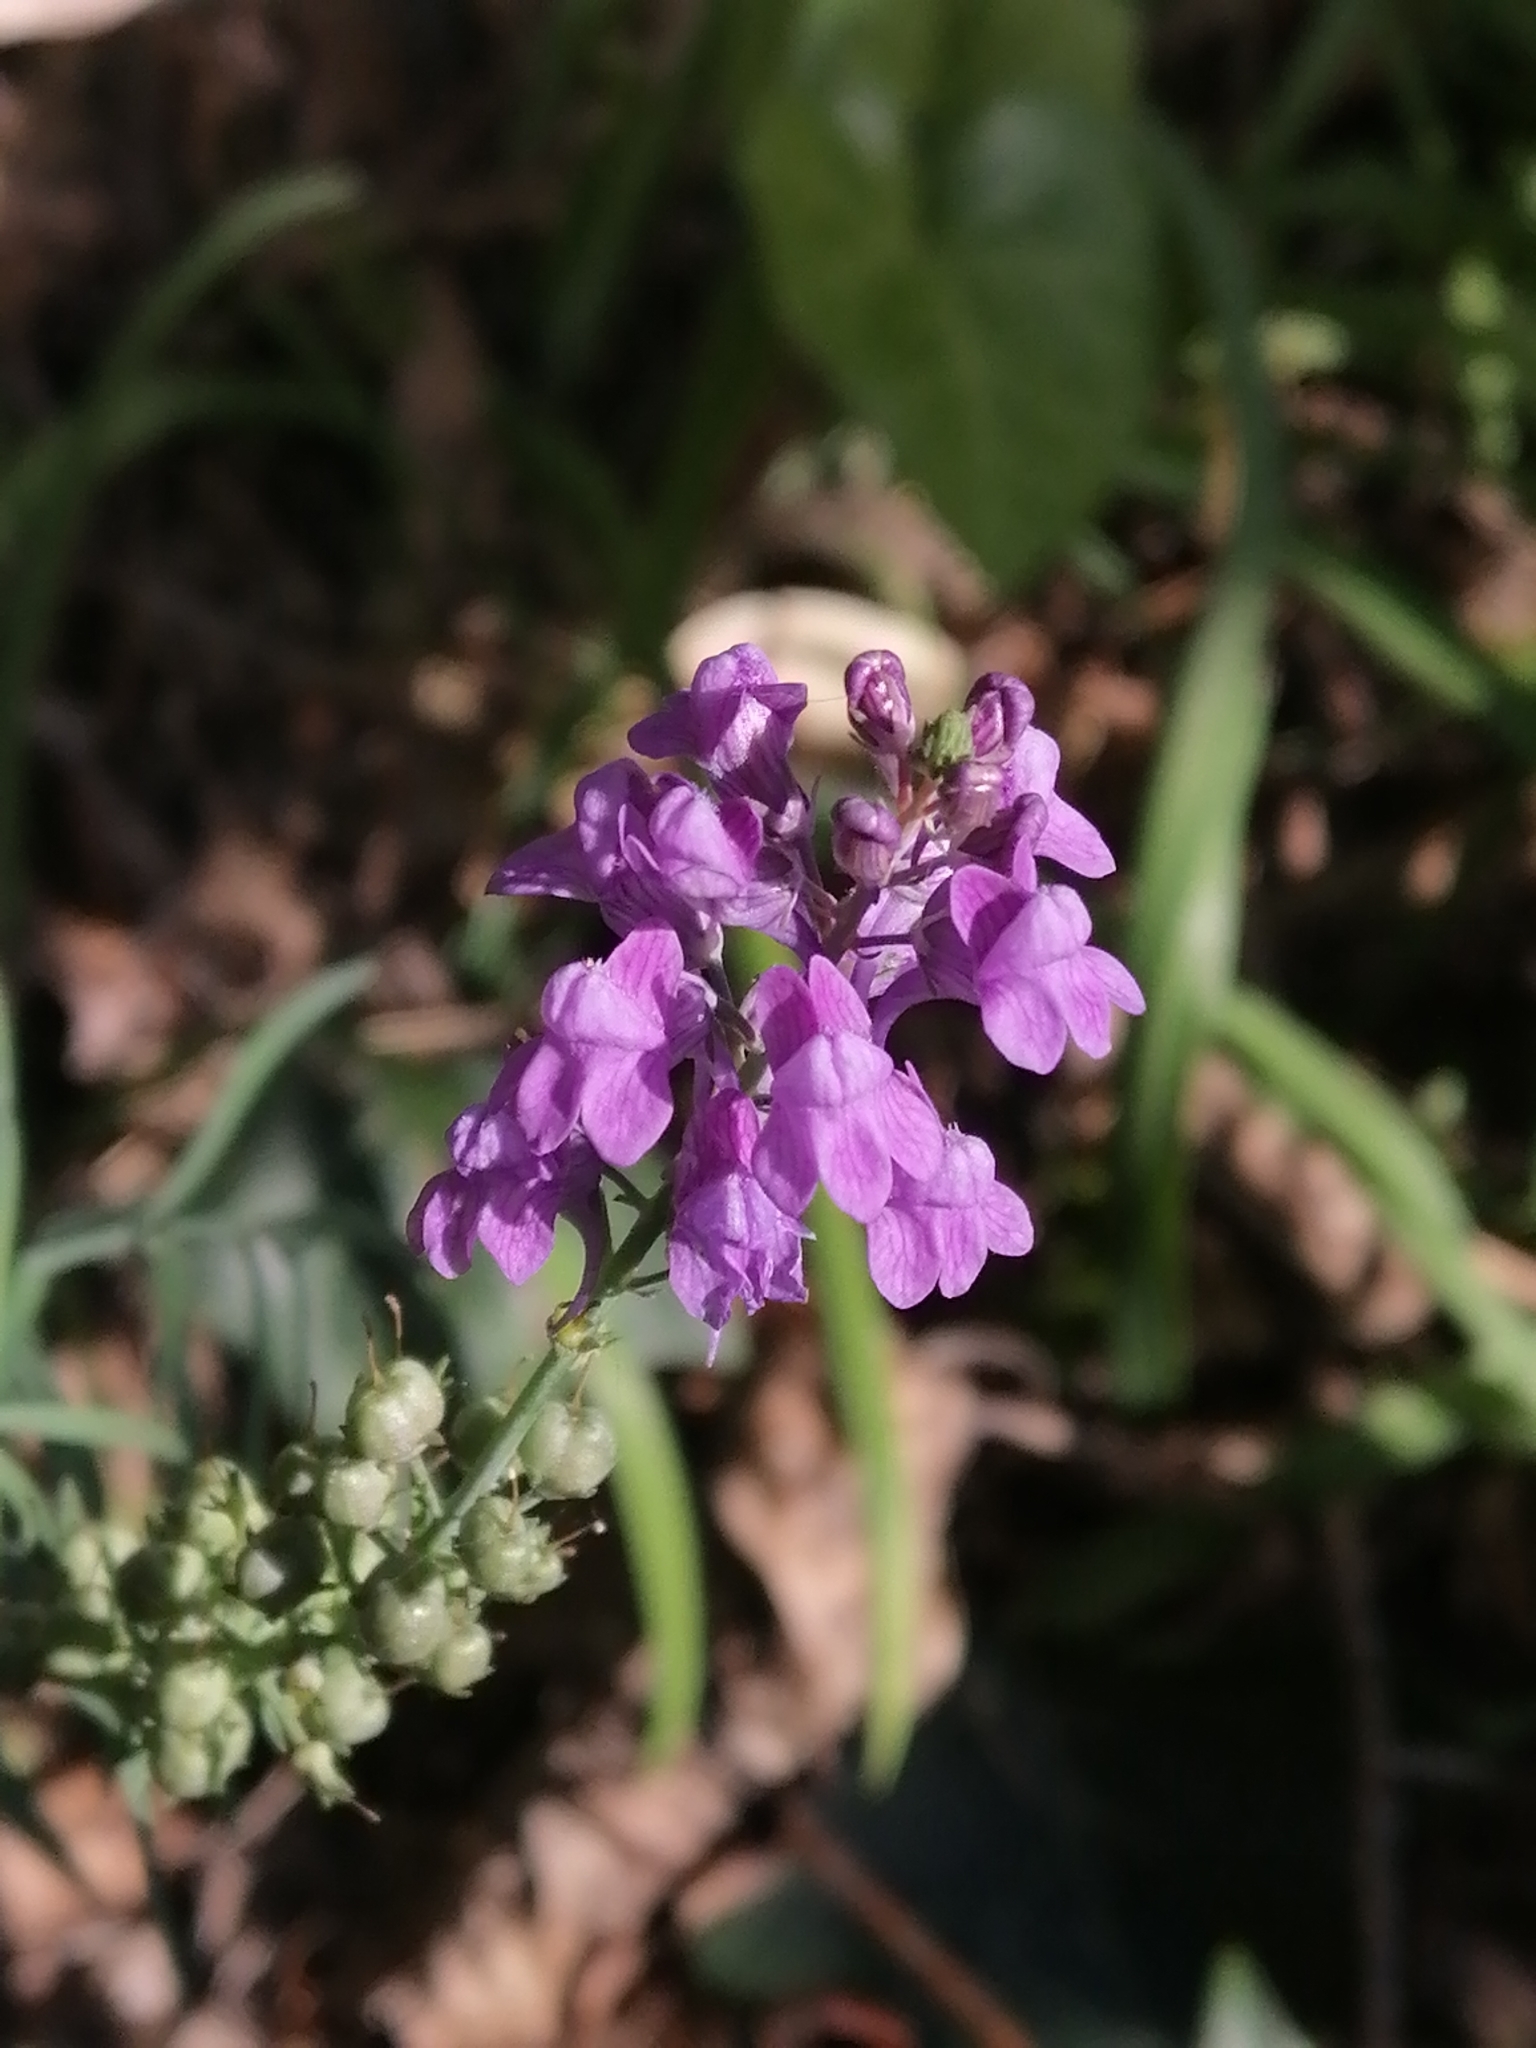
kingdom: Plantae
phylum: Tracheophyta
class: Magnoliopsida
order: Lamiales
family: Plantaginaceae
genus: Linaria
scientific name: Linaria purpurea
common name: Purple toadflax
